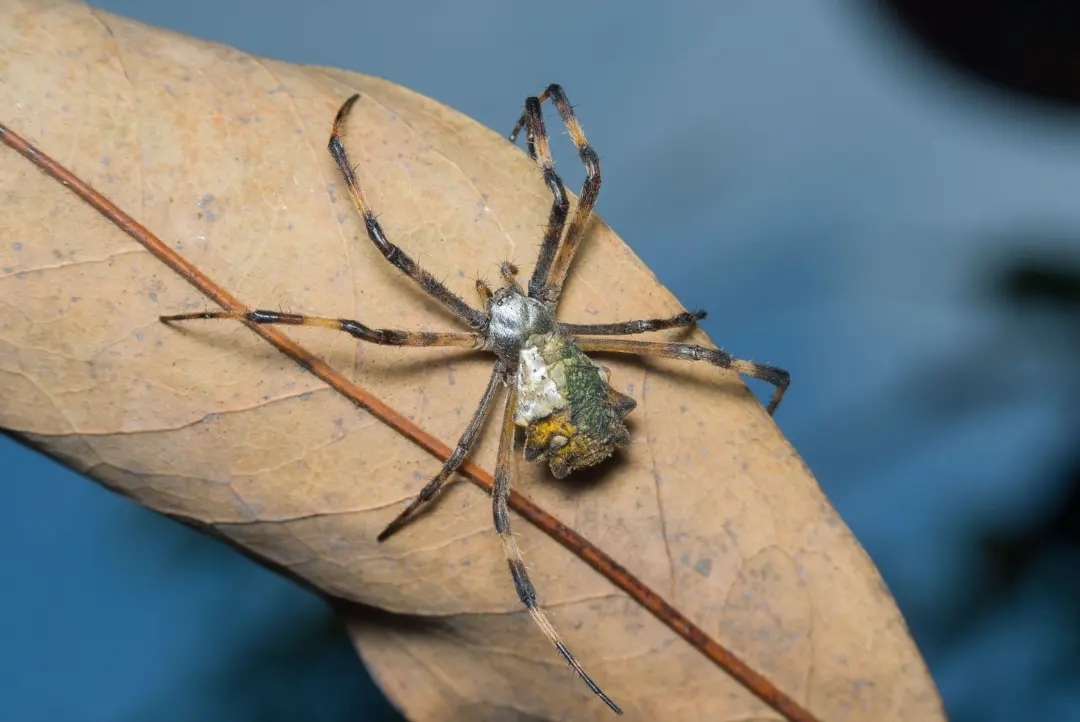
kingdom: Animalia
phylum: Arthropoda
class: Arachnida
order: Araneae
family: Araneidae
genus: Argiope
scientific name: Argiope argentata
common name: Orb weavers
